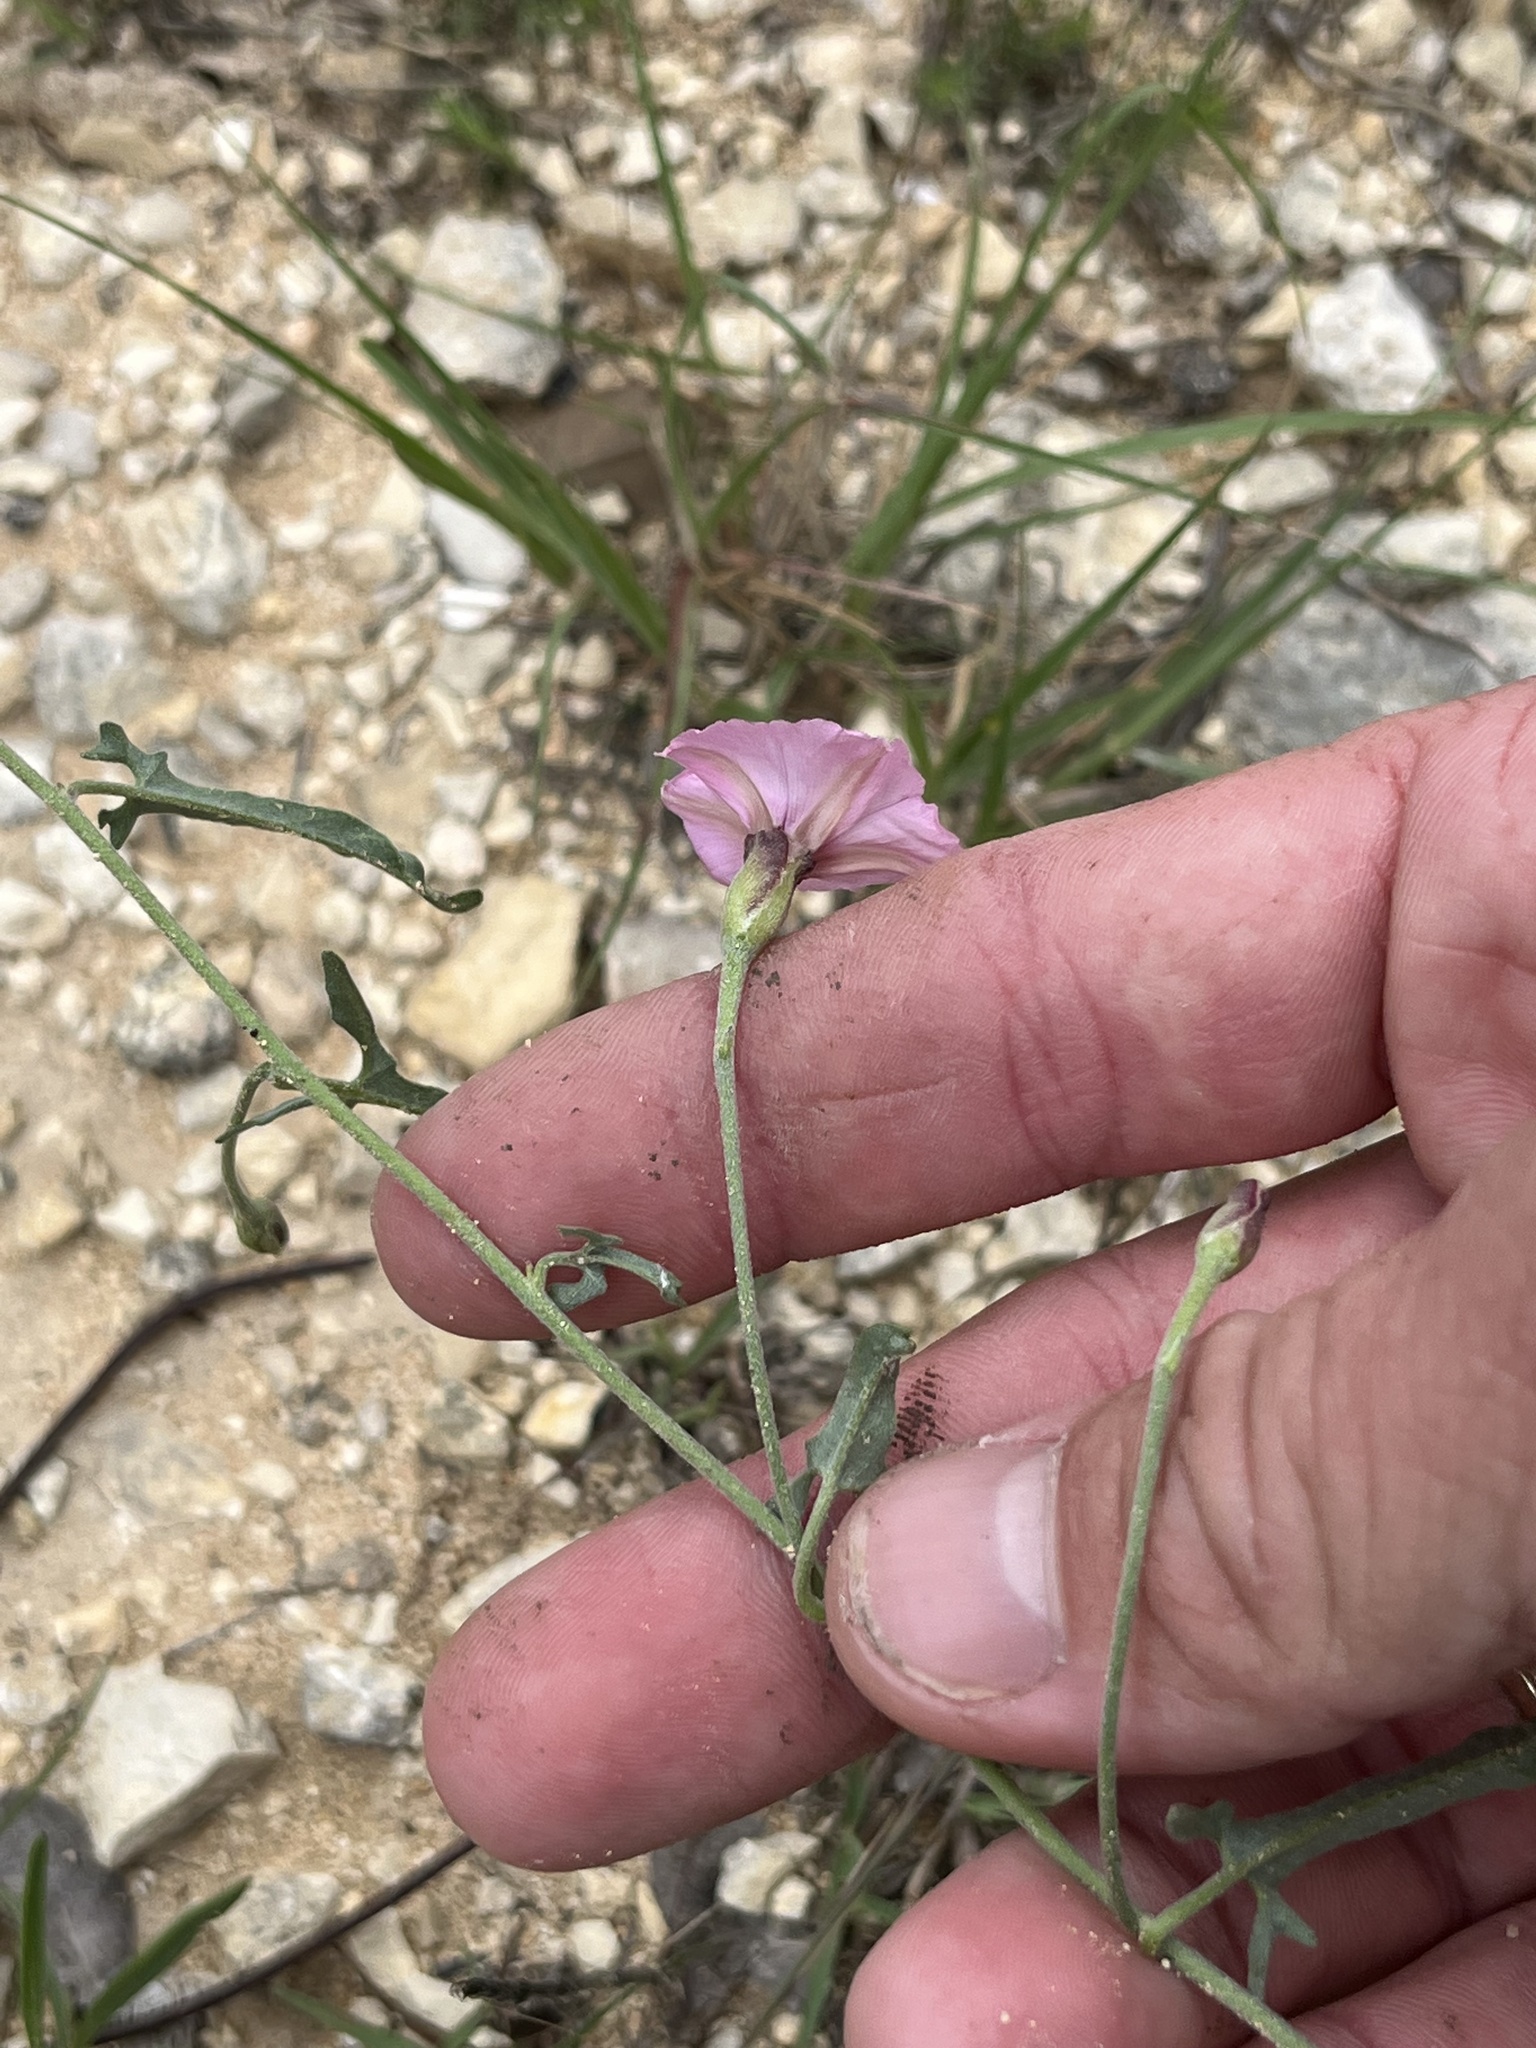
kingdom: Plantae
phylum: Tracheophyta
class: Magnoliopsida
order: Solanales
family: Convolvulaceae
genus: Convolvulus
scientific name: Convolvulus equitans
